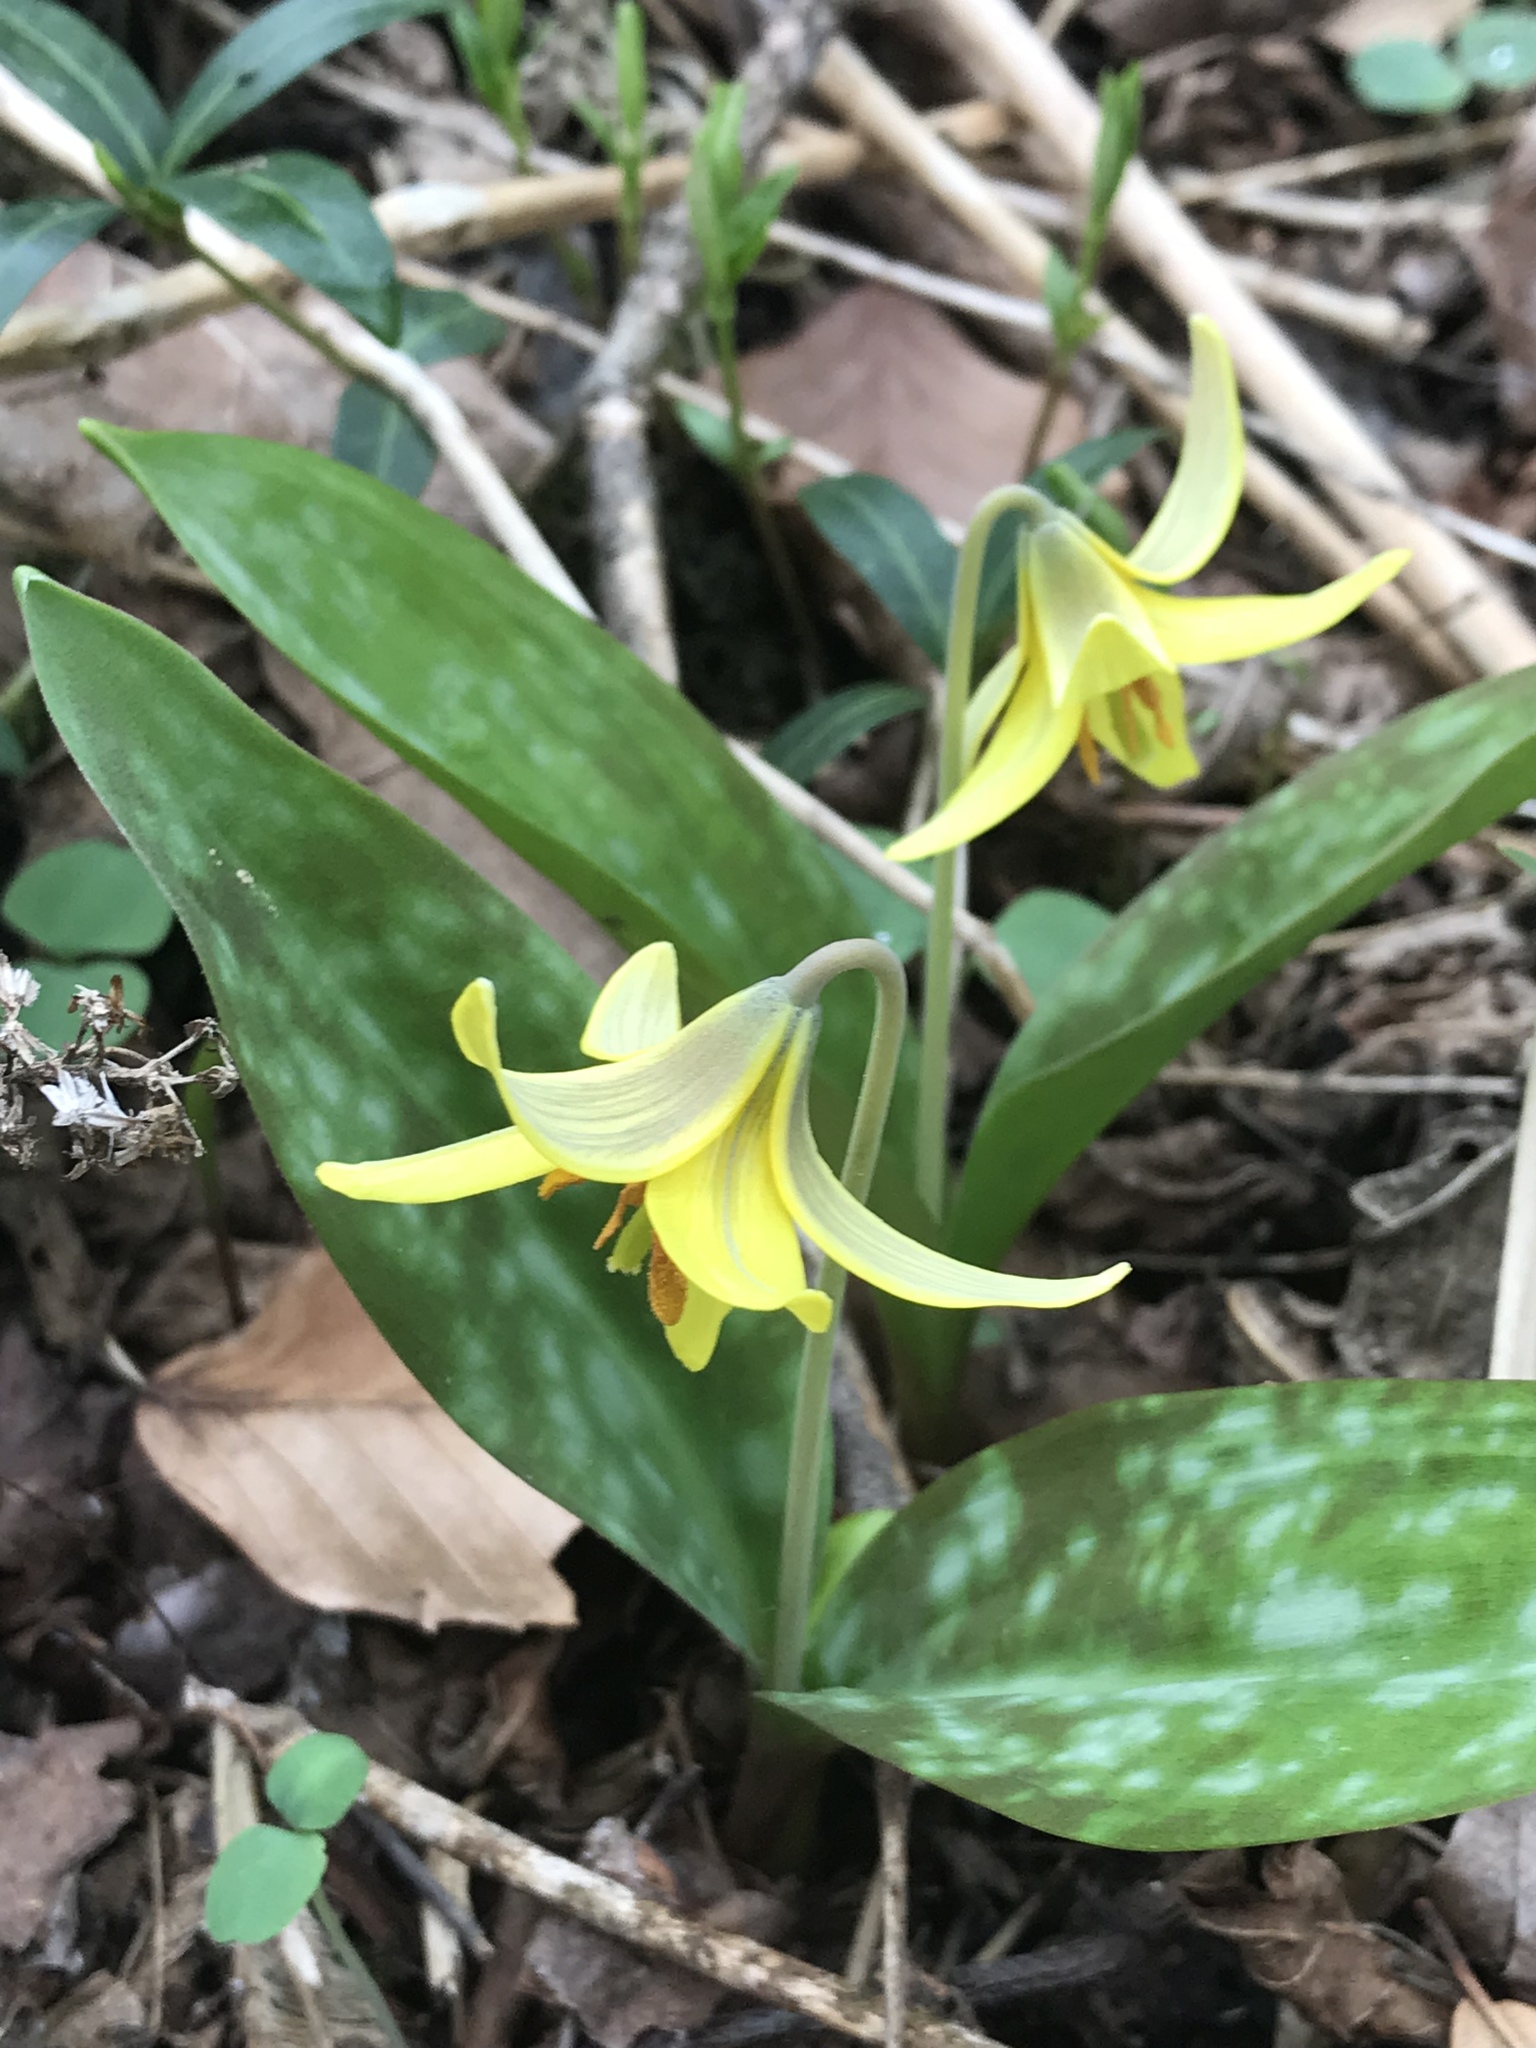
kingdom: Plantae
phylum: Tracheophyta
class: Liliopsida
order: Liliales
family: Liliaceae
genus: Erythronium
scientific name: Erythronium americanum
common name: Yellow adder's-tongue
